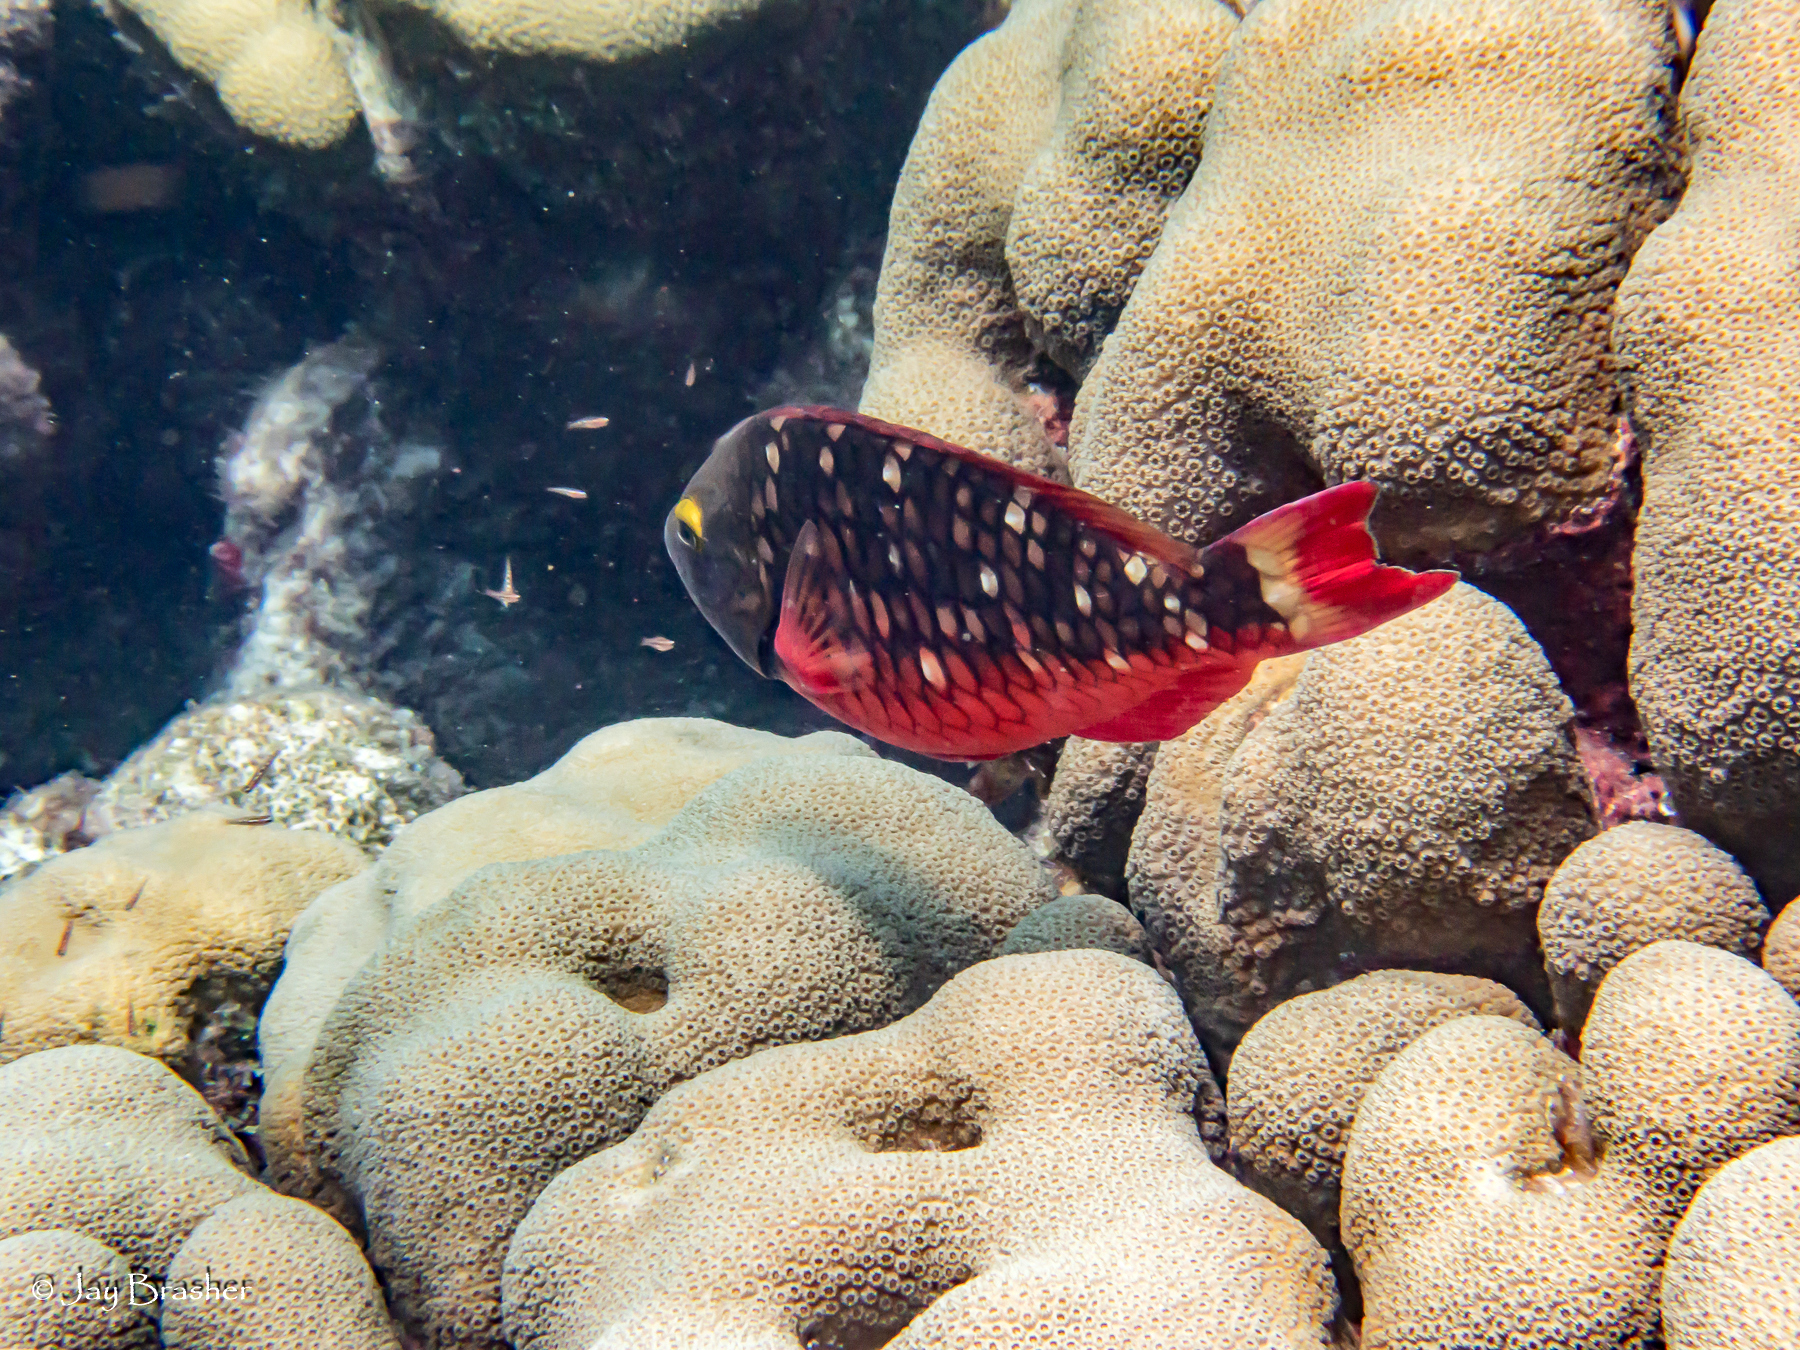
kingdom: Animalia
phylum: Chordata
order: Perciformes
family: Scaridae
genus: Sparisoma
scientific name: Sparisoma viride
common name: Stoplight parrotfish
